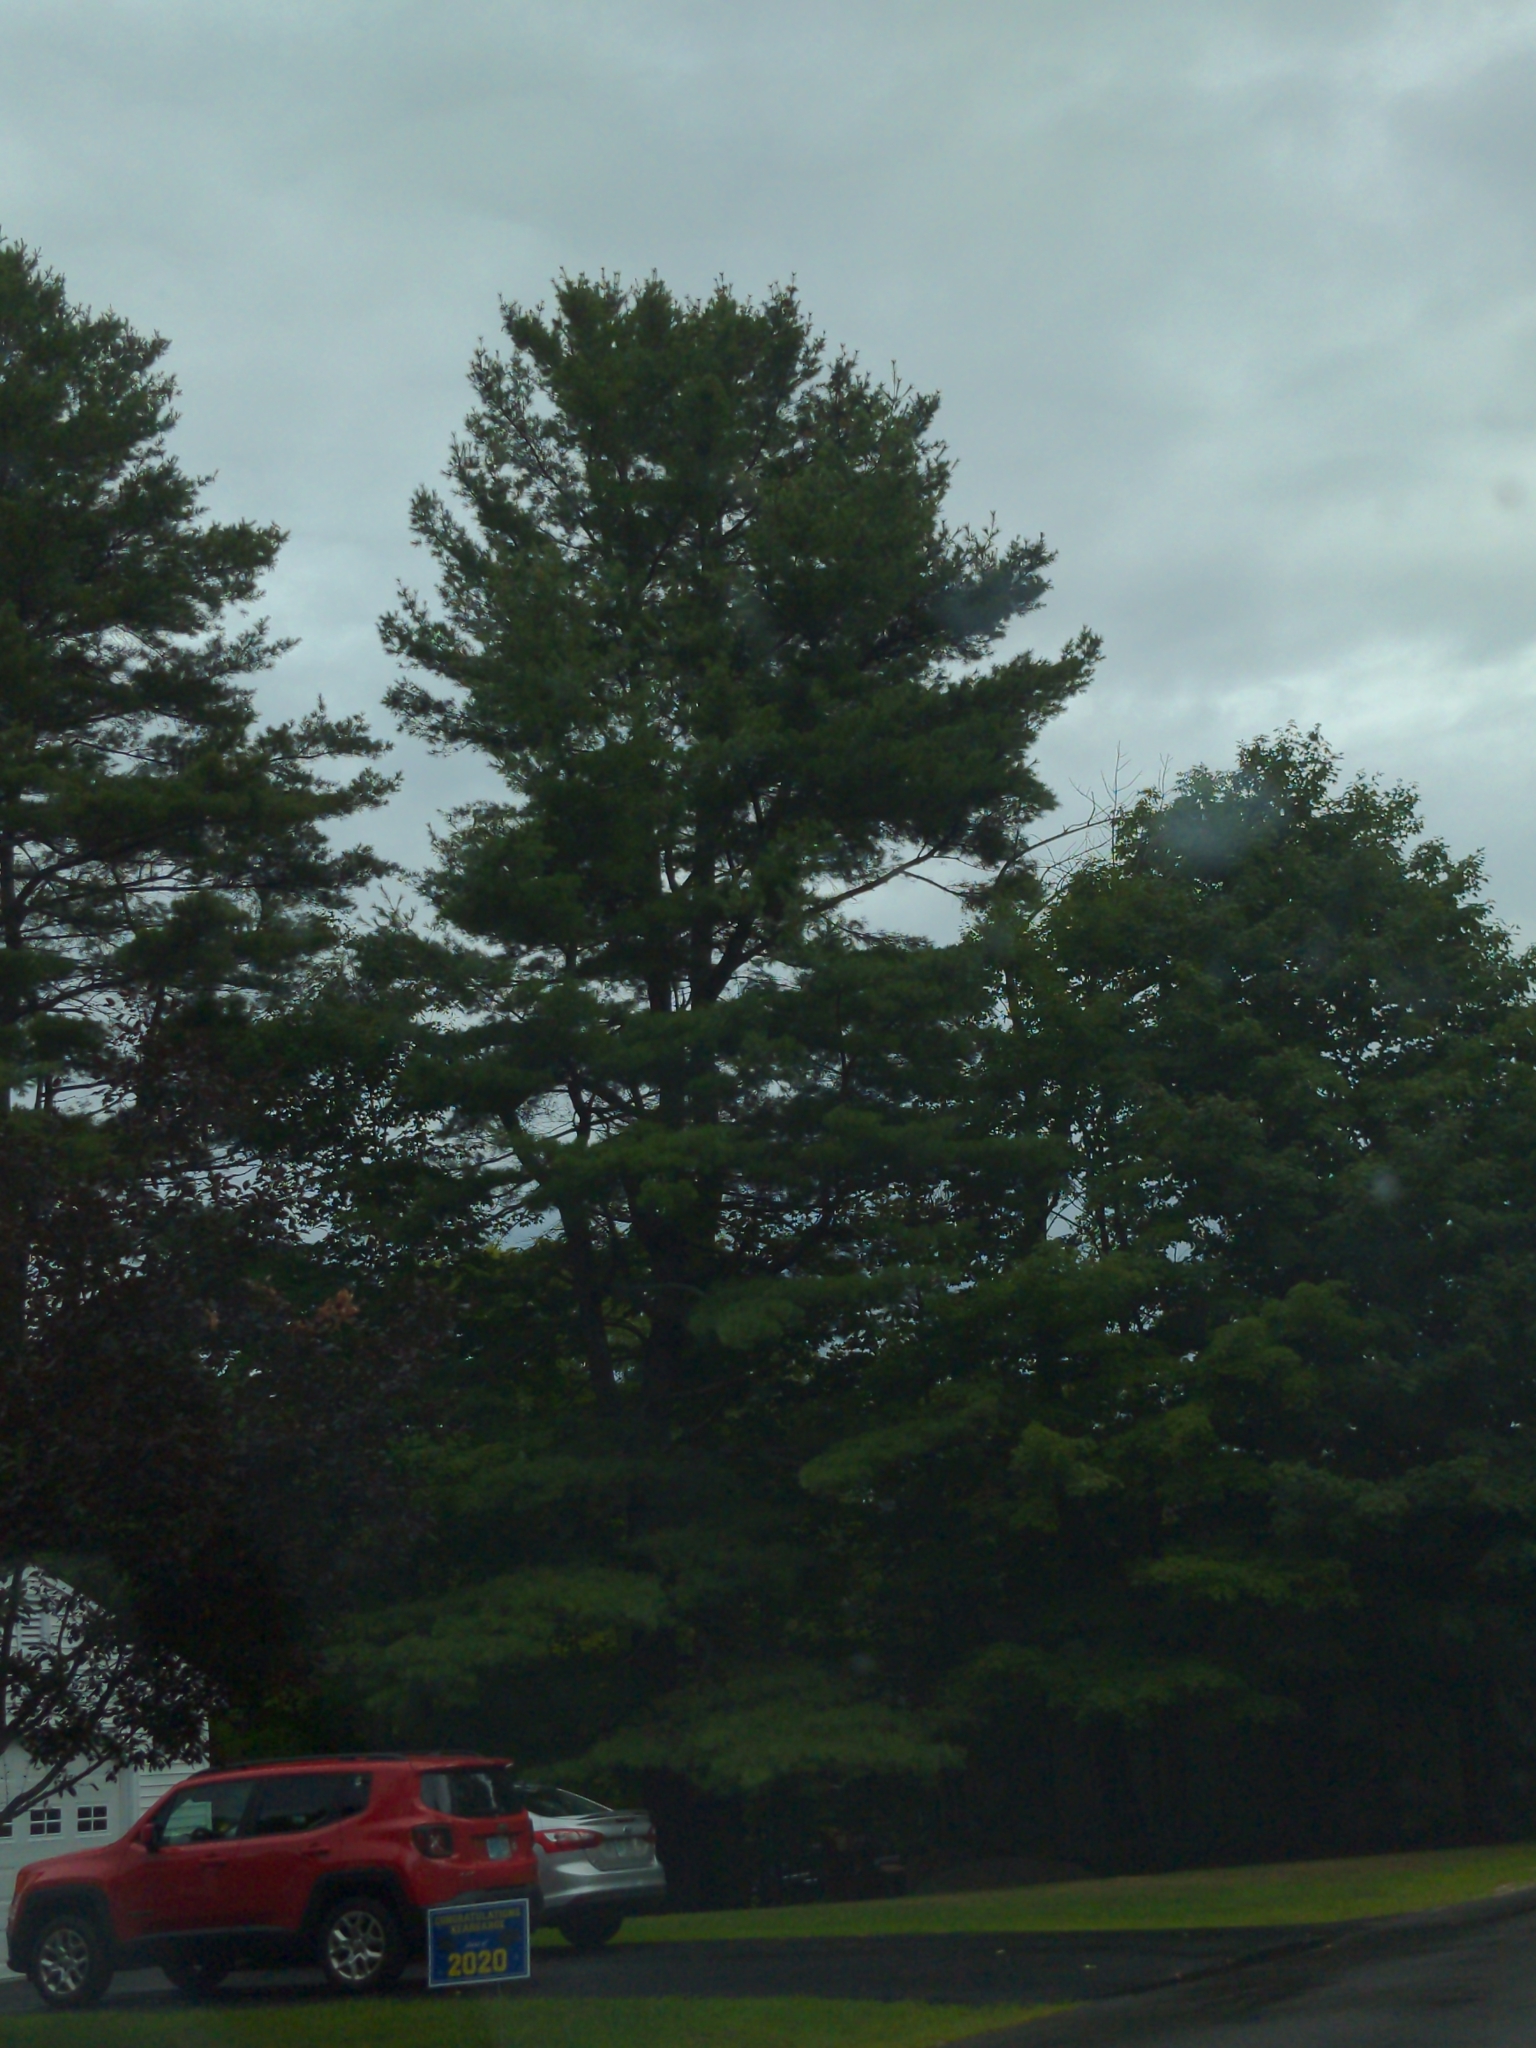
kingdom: Plantae
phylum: Tracheophyta
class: Pinopsida
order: Pinales
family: Pinaceae
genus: Pinus
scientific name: Pinus strobus
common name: Weymouth pine
